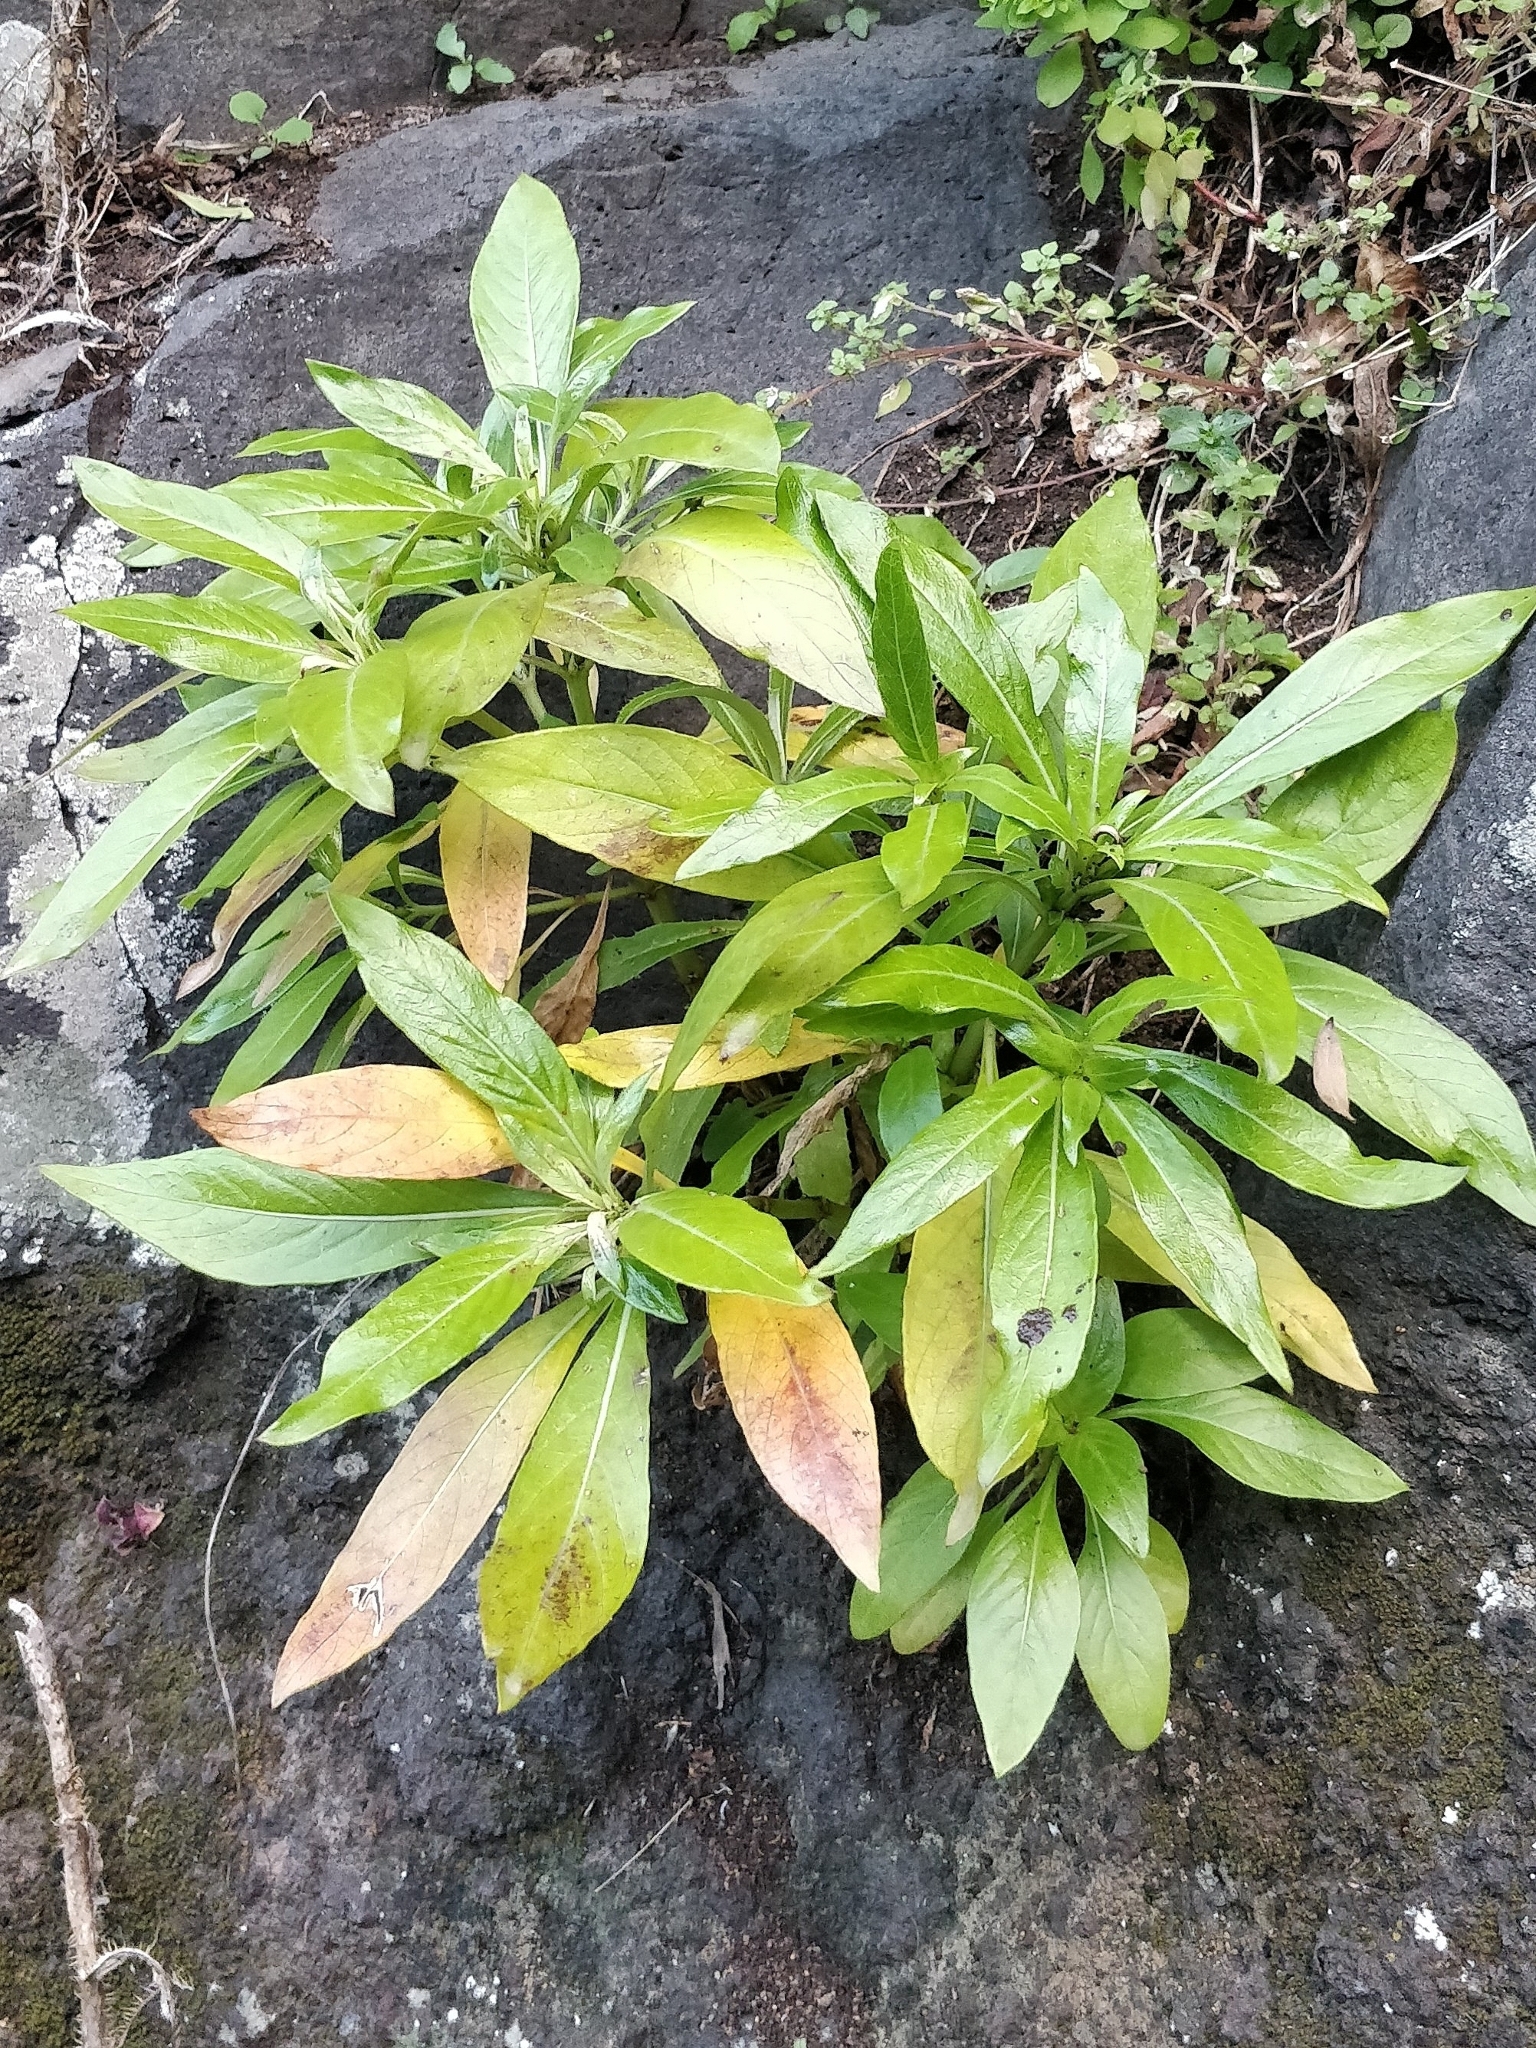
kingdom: Plantae
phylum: Tracheophyta
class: Magnoliopsida
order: Gentianales
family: Rubiaceae
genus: Phyllis
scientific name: Phyllis nobla
